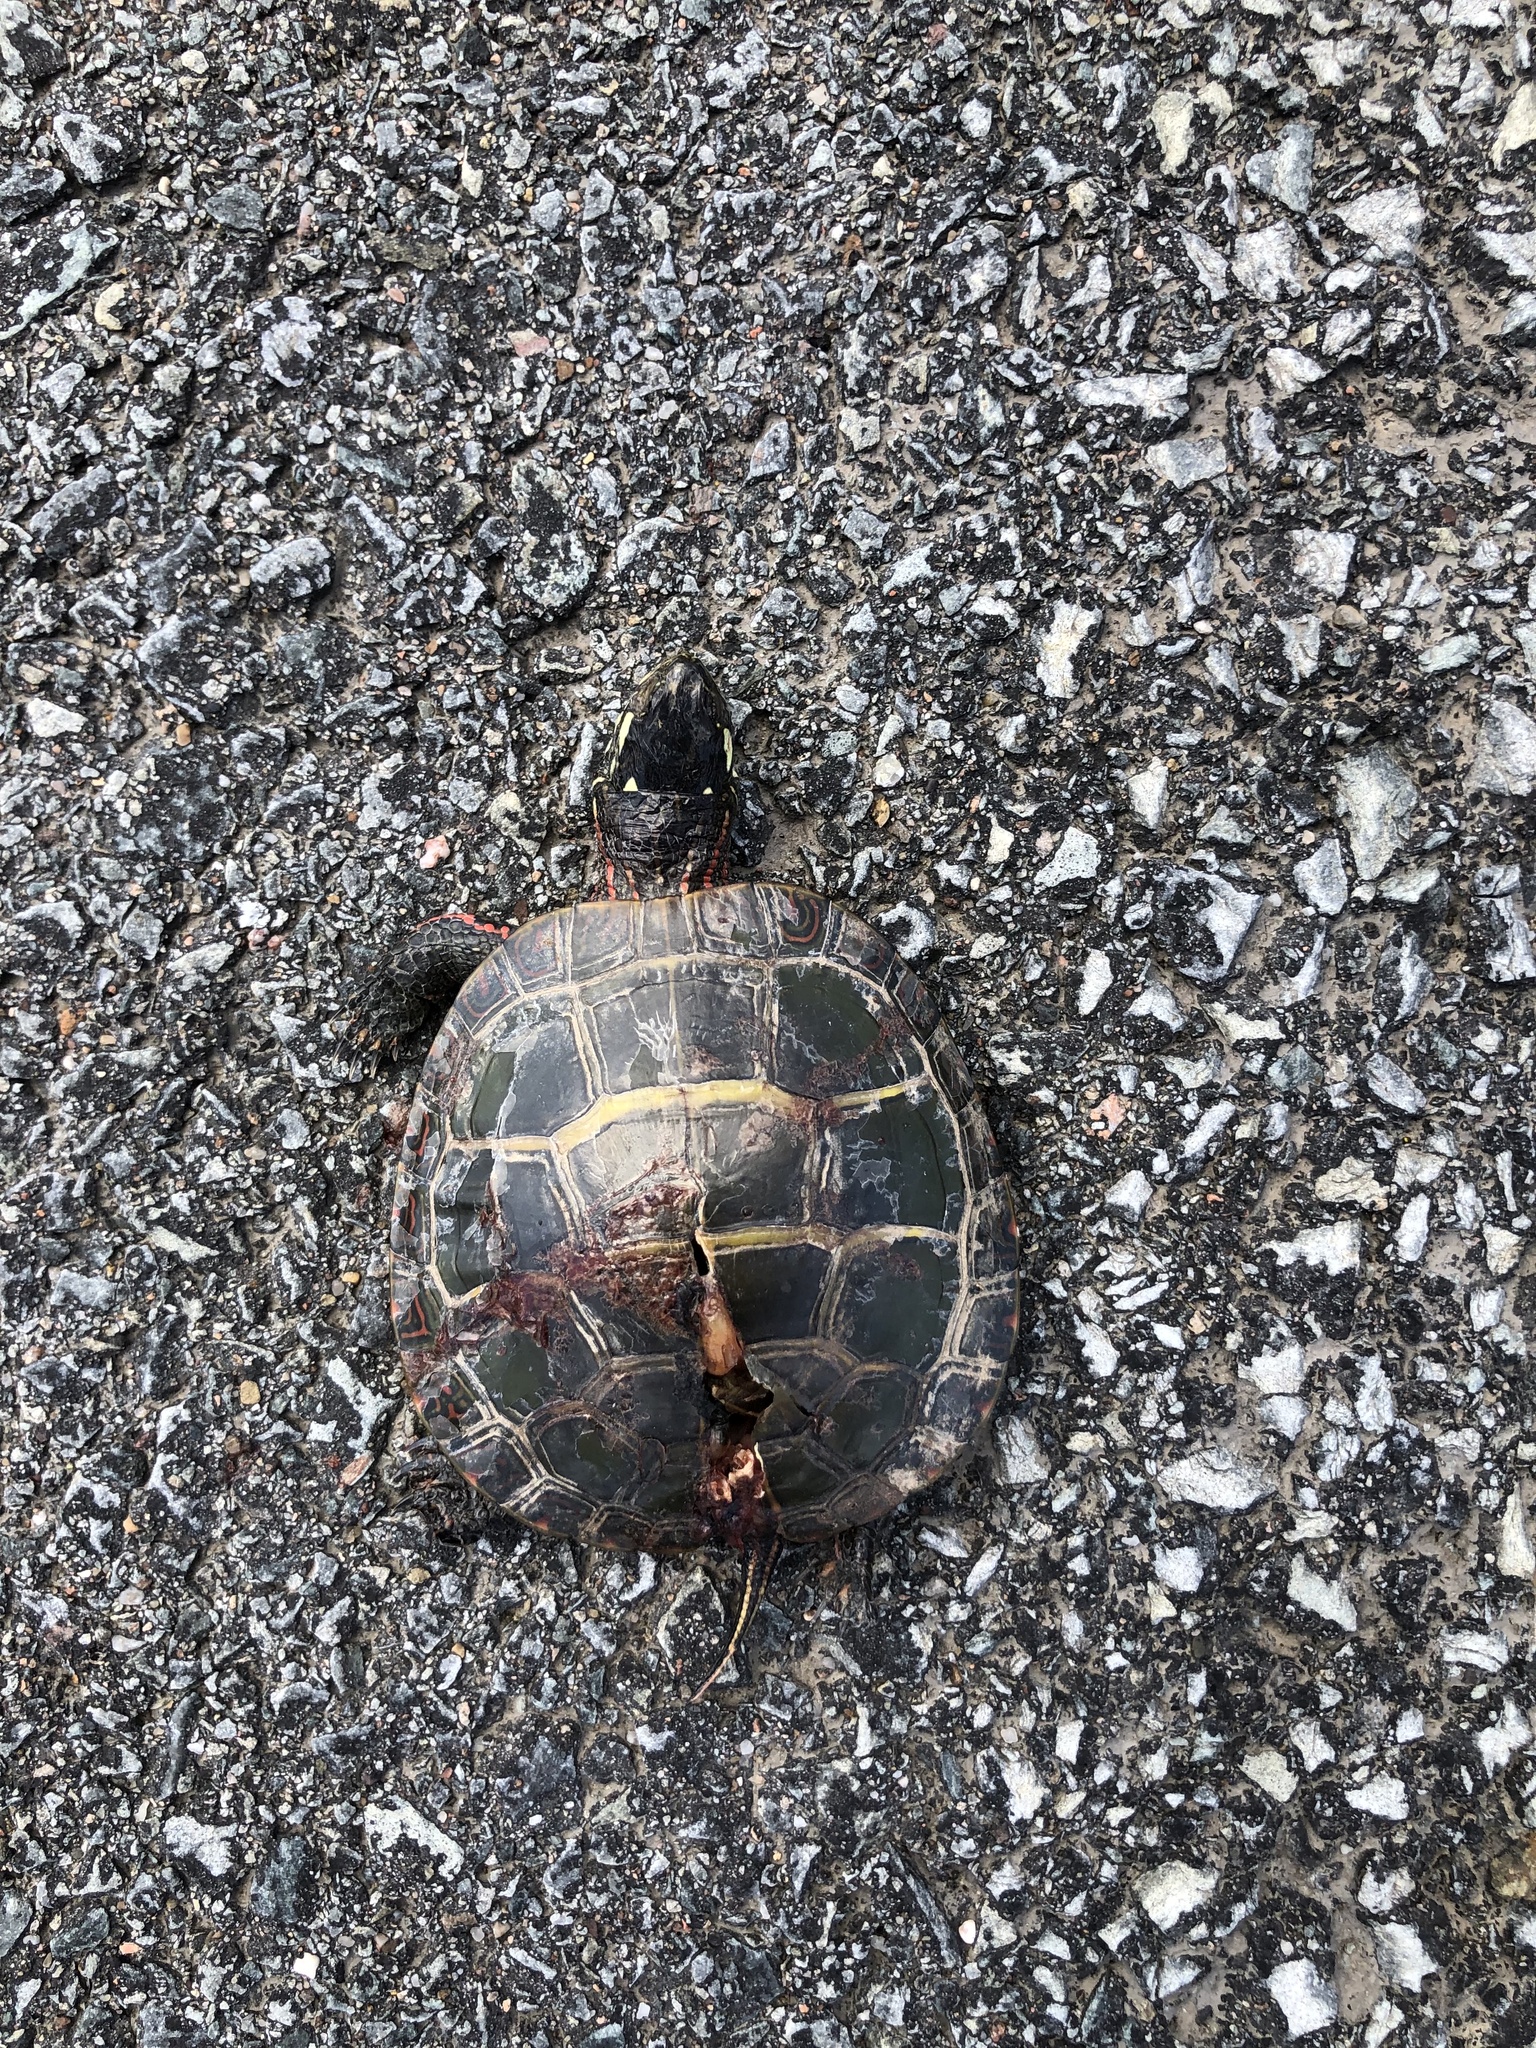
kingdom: Animalia
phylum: Chordata
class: Testudines
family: Emydidae
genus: Chrysemys
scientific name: Chrysemys picta
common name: Painted turtle
